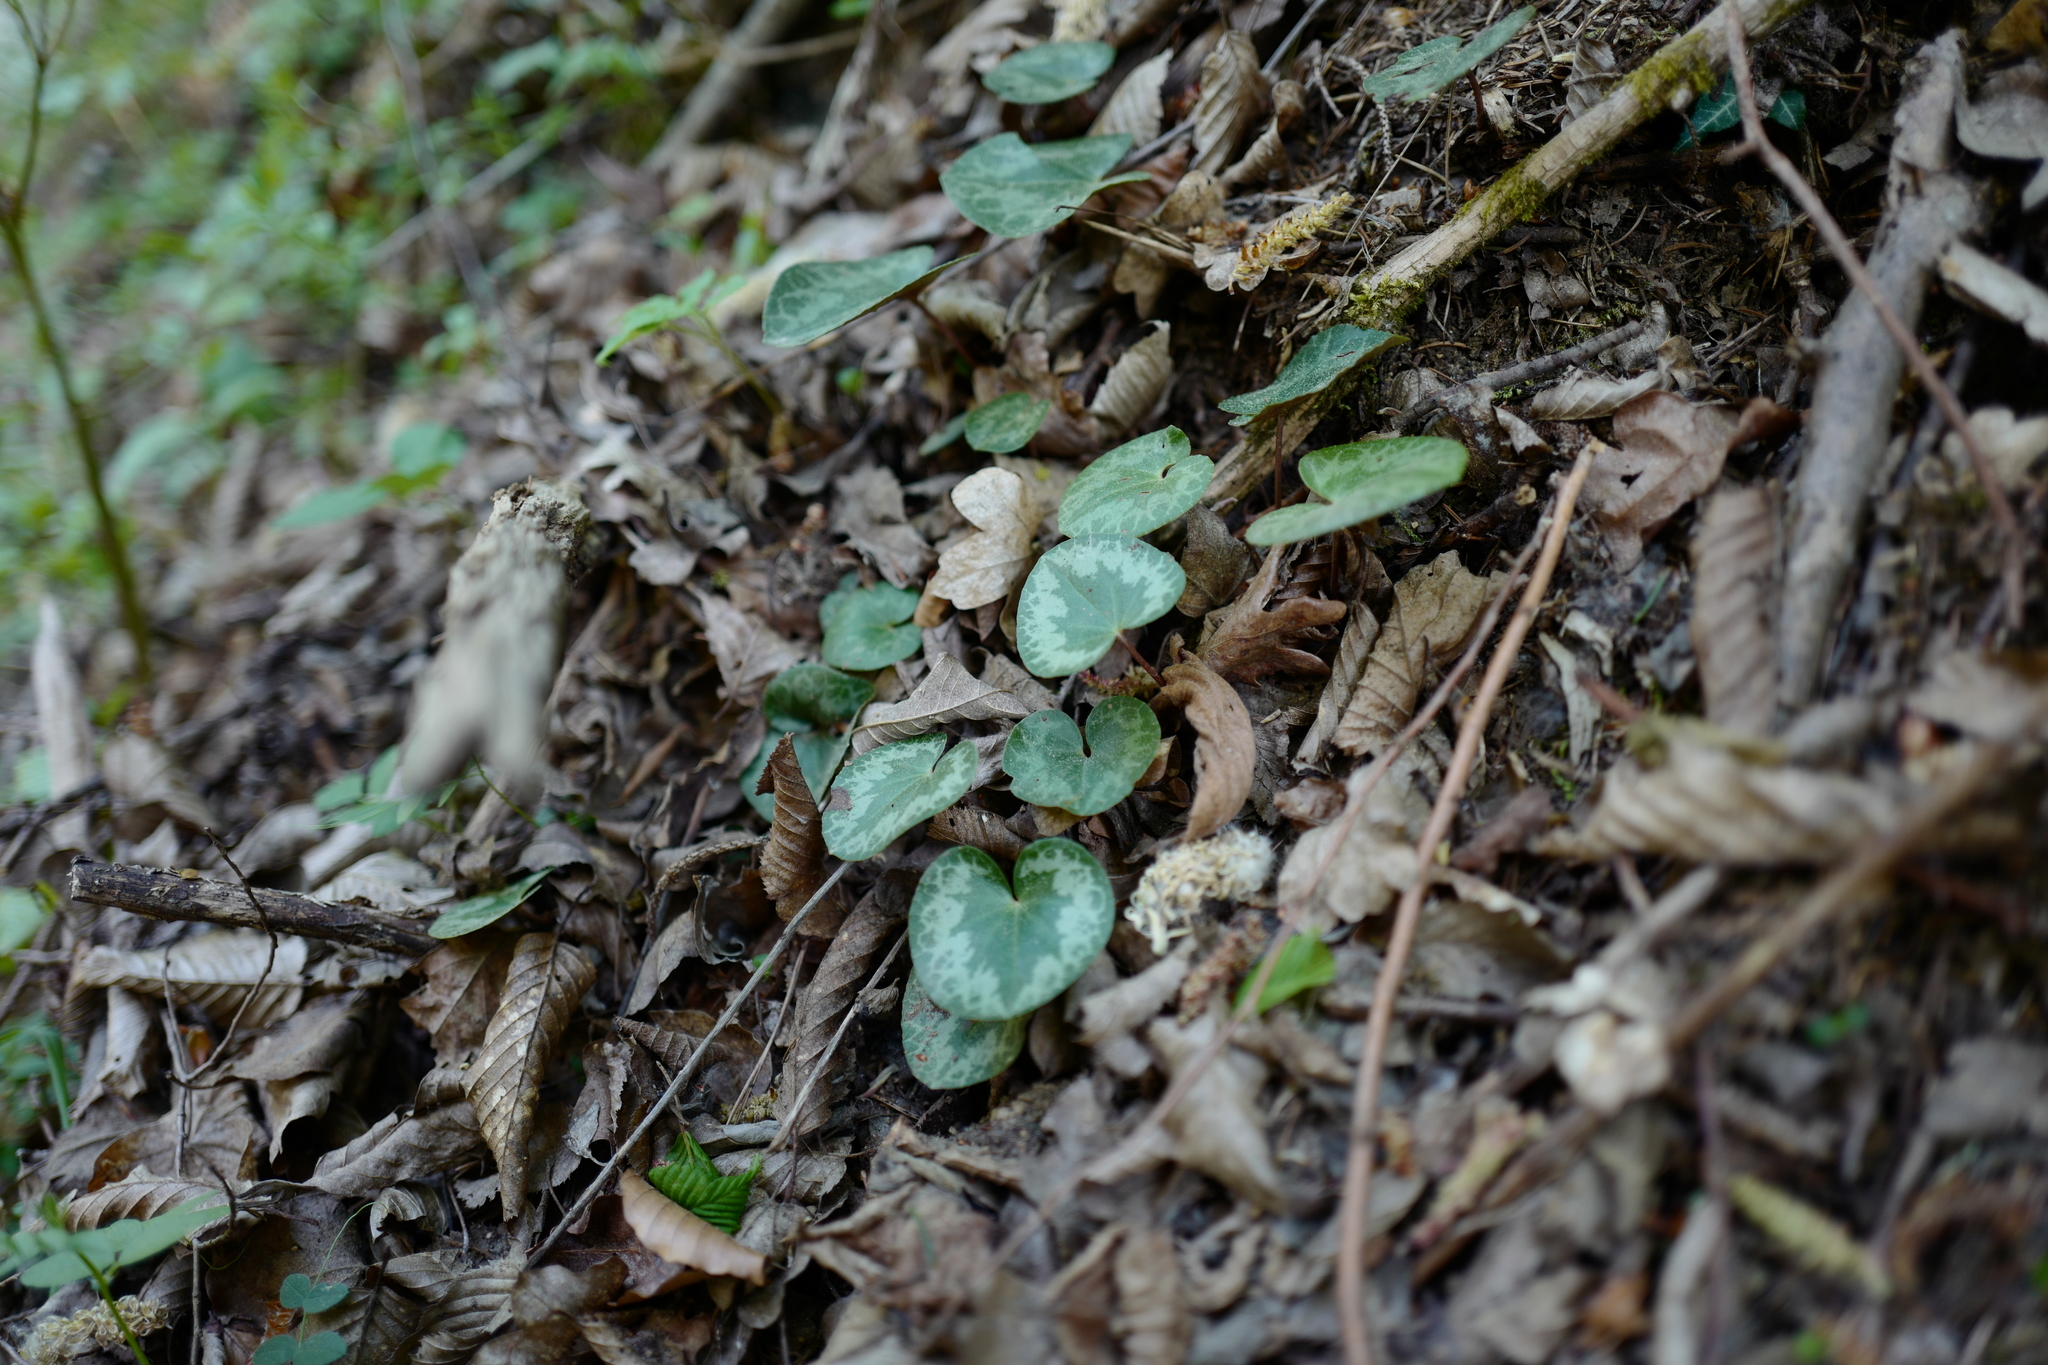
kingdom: Plantae
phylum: Tracheophyta
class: Magnoliopsida
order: Ericales
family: Primulaceae
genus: Cyclamen
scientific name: Cyclamen purpurascens
